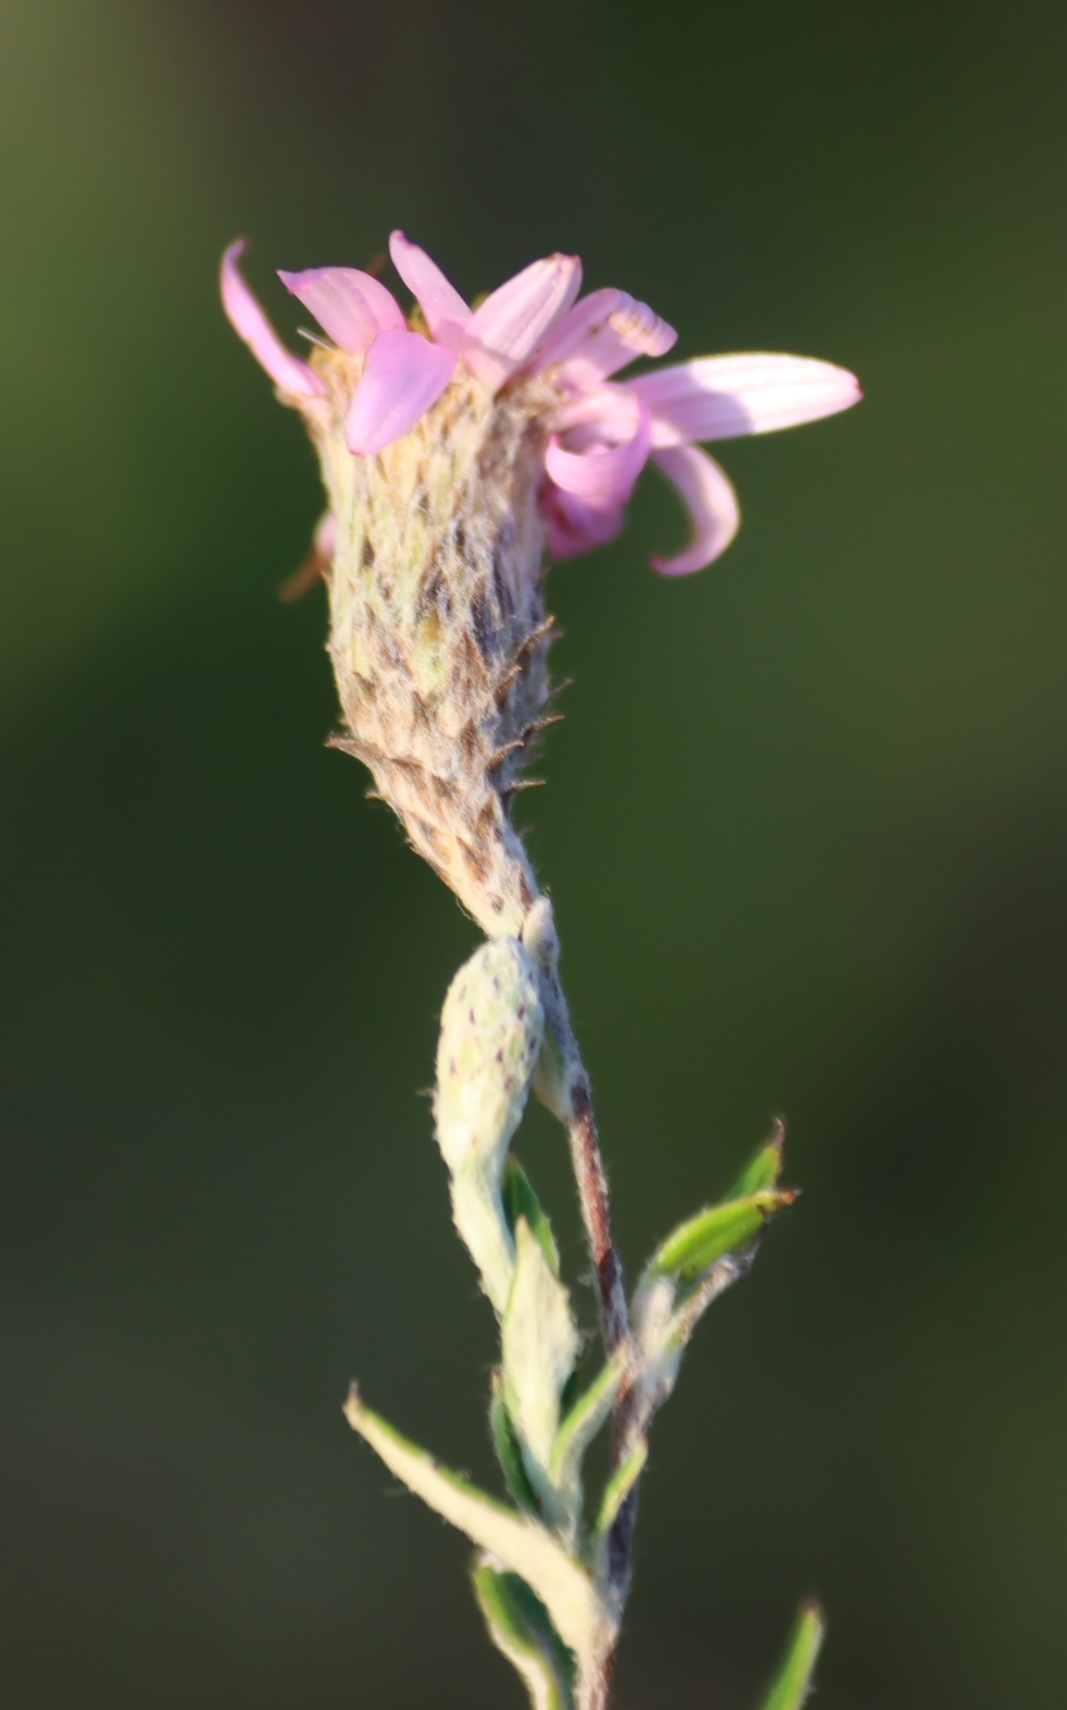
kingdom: Plantae
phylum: Tracheophyta
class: Magnoliopsida
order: Asterales
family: Asteraceae
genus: Athrixia
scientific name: Athrixia phylicoides
